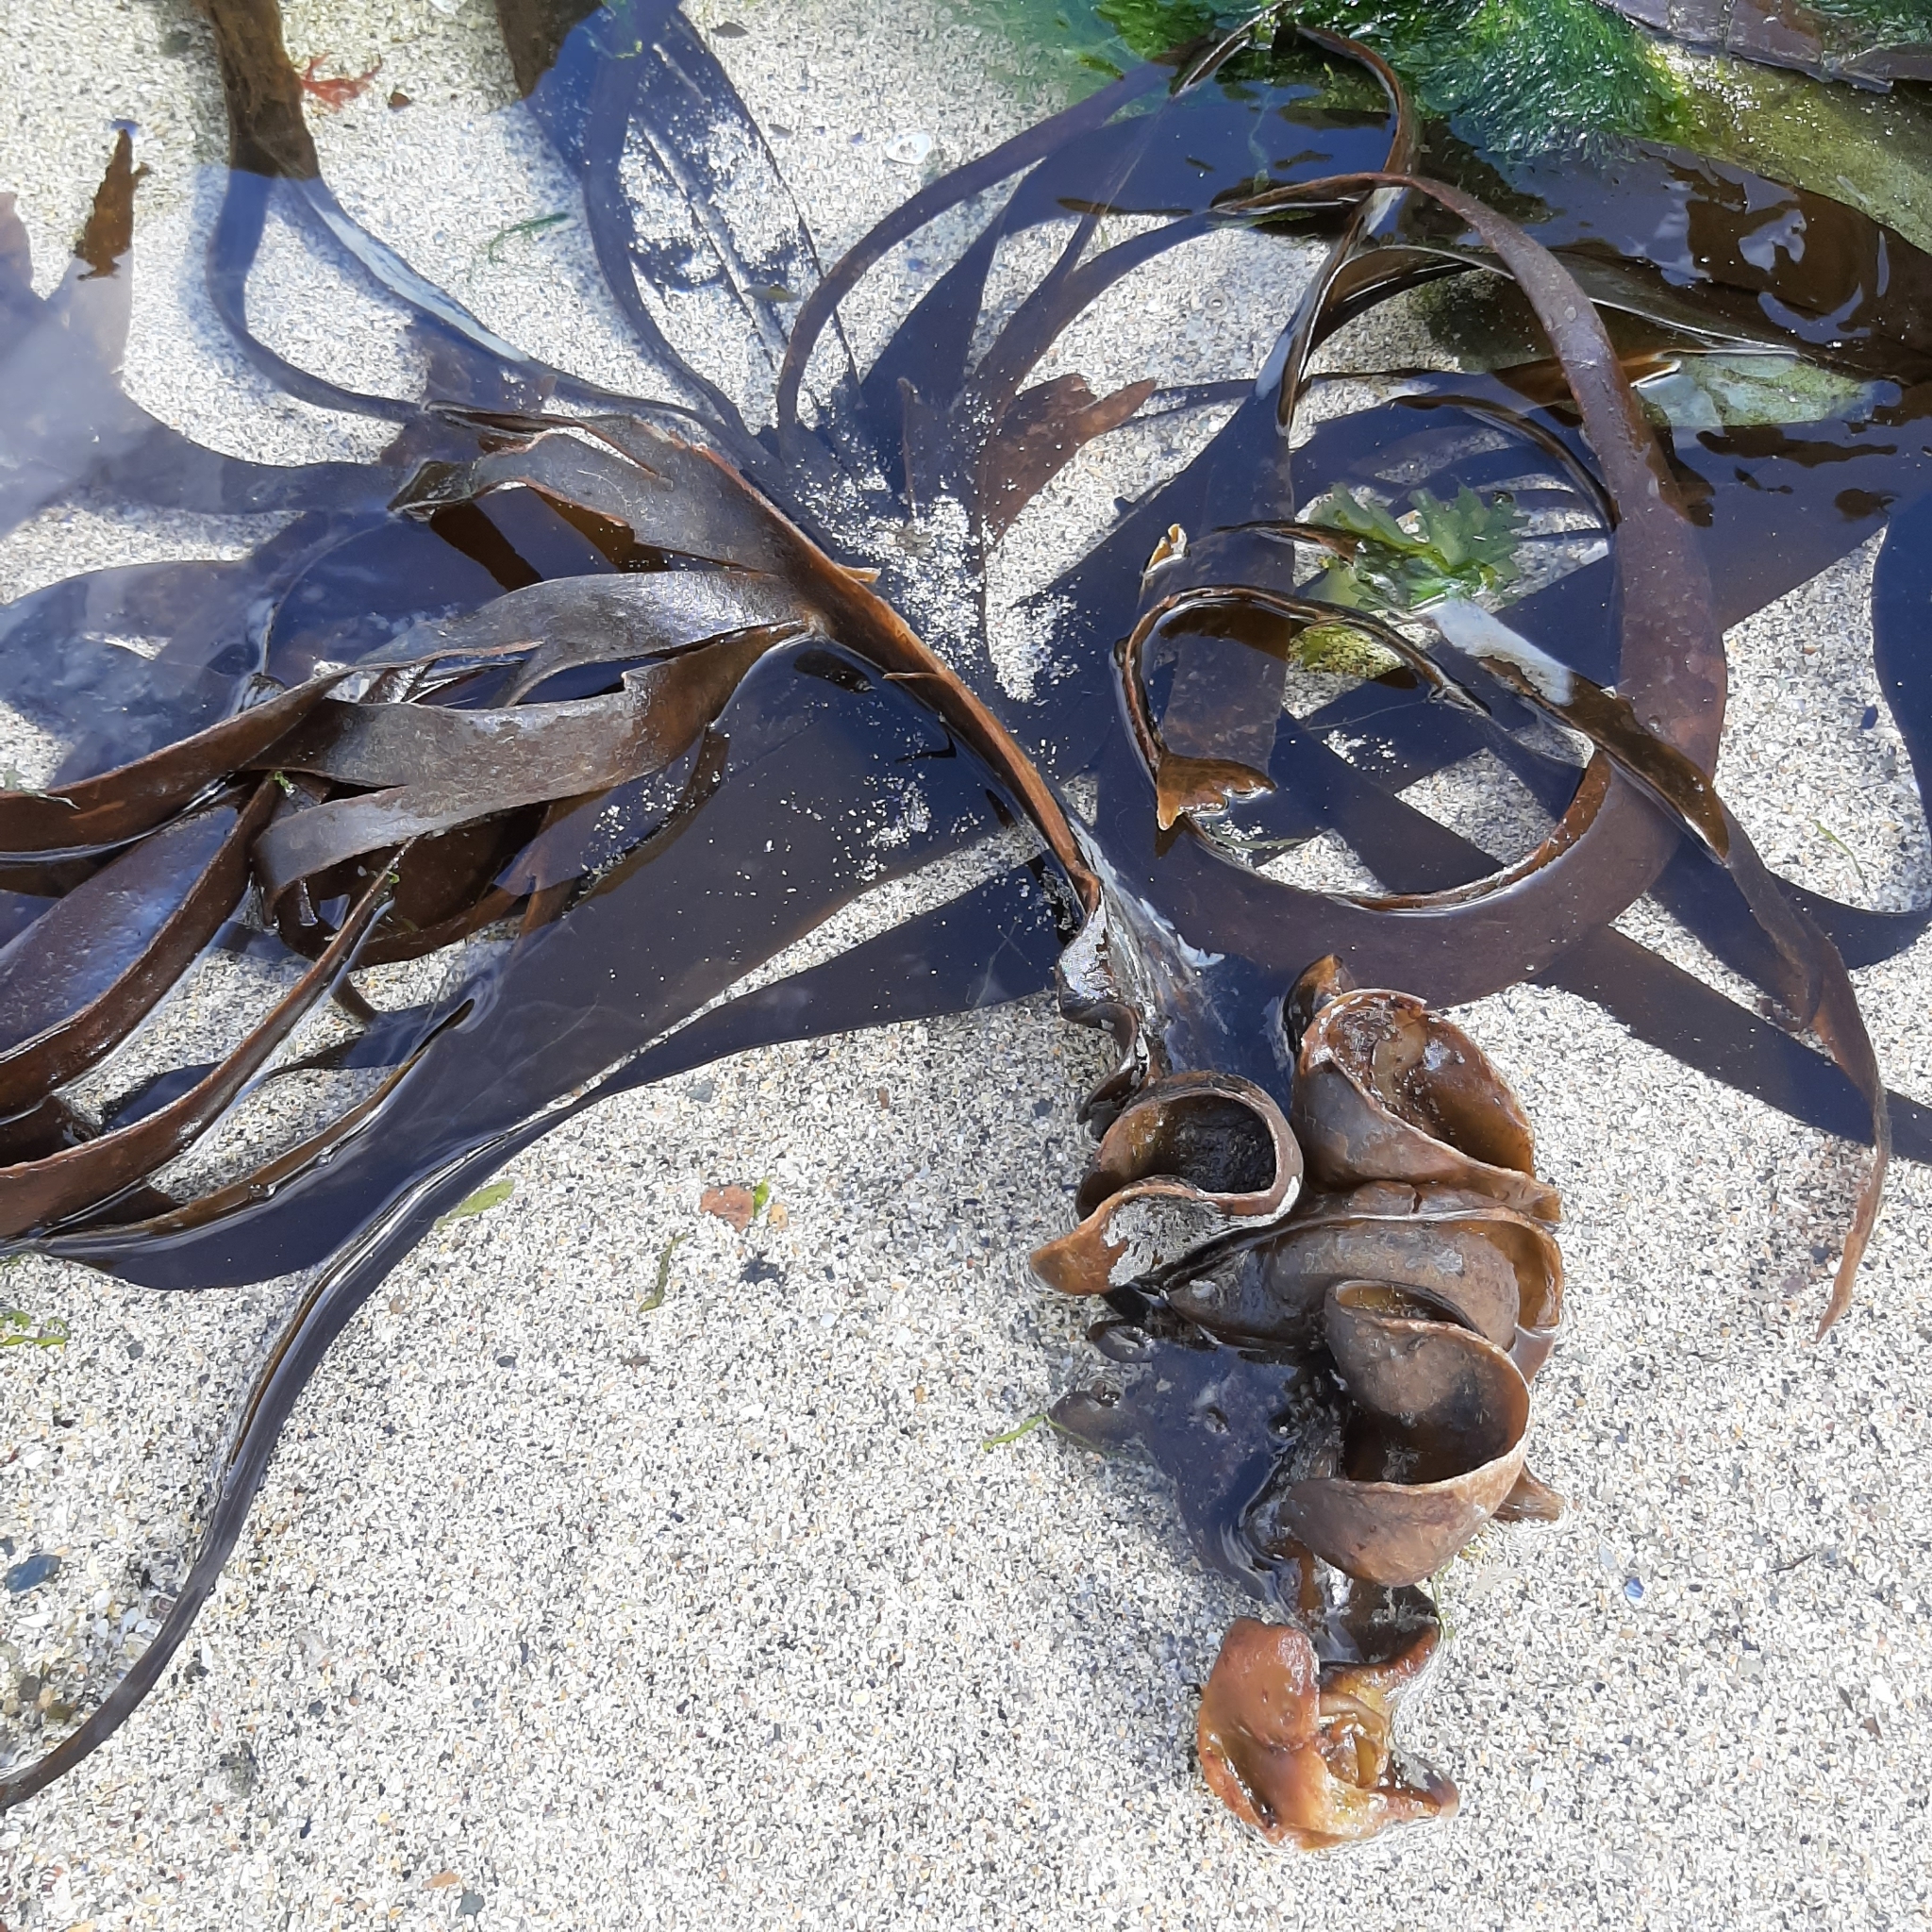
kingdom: Chromista
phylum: Ochrophyta
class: Phaeophyceae
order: Tilopteridales
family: Phyllariaceae
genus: Saccorhiza
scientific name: Saccorhiza polyschides
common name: Furbelows
